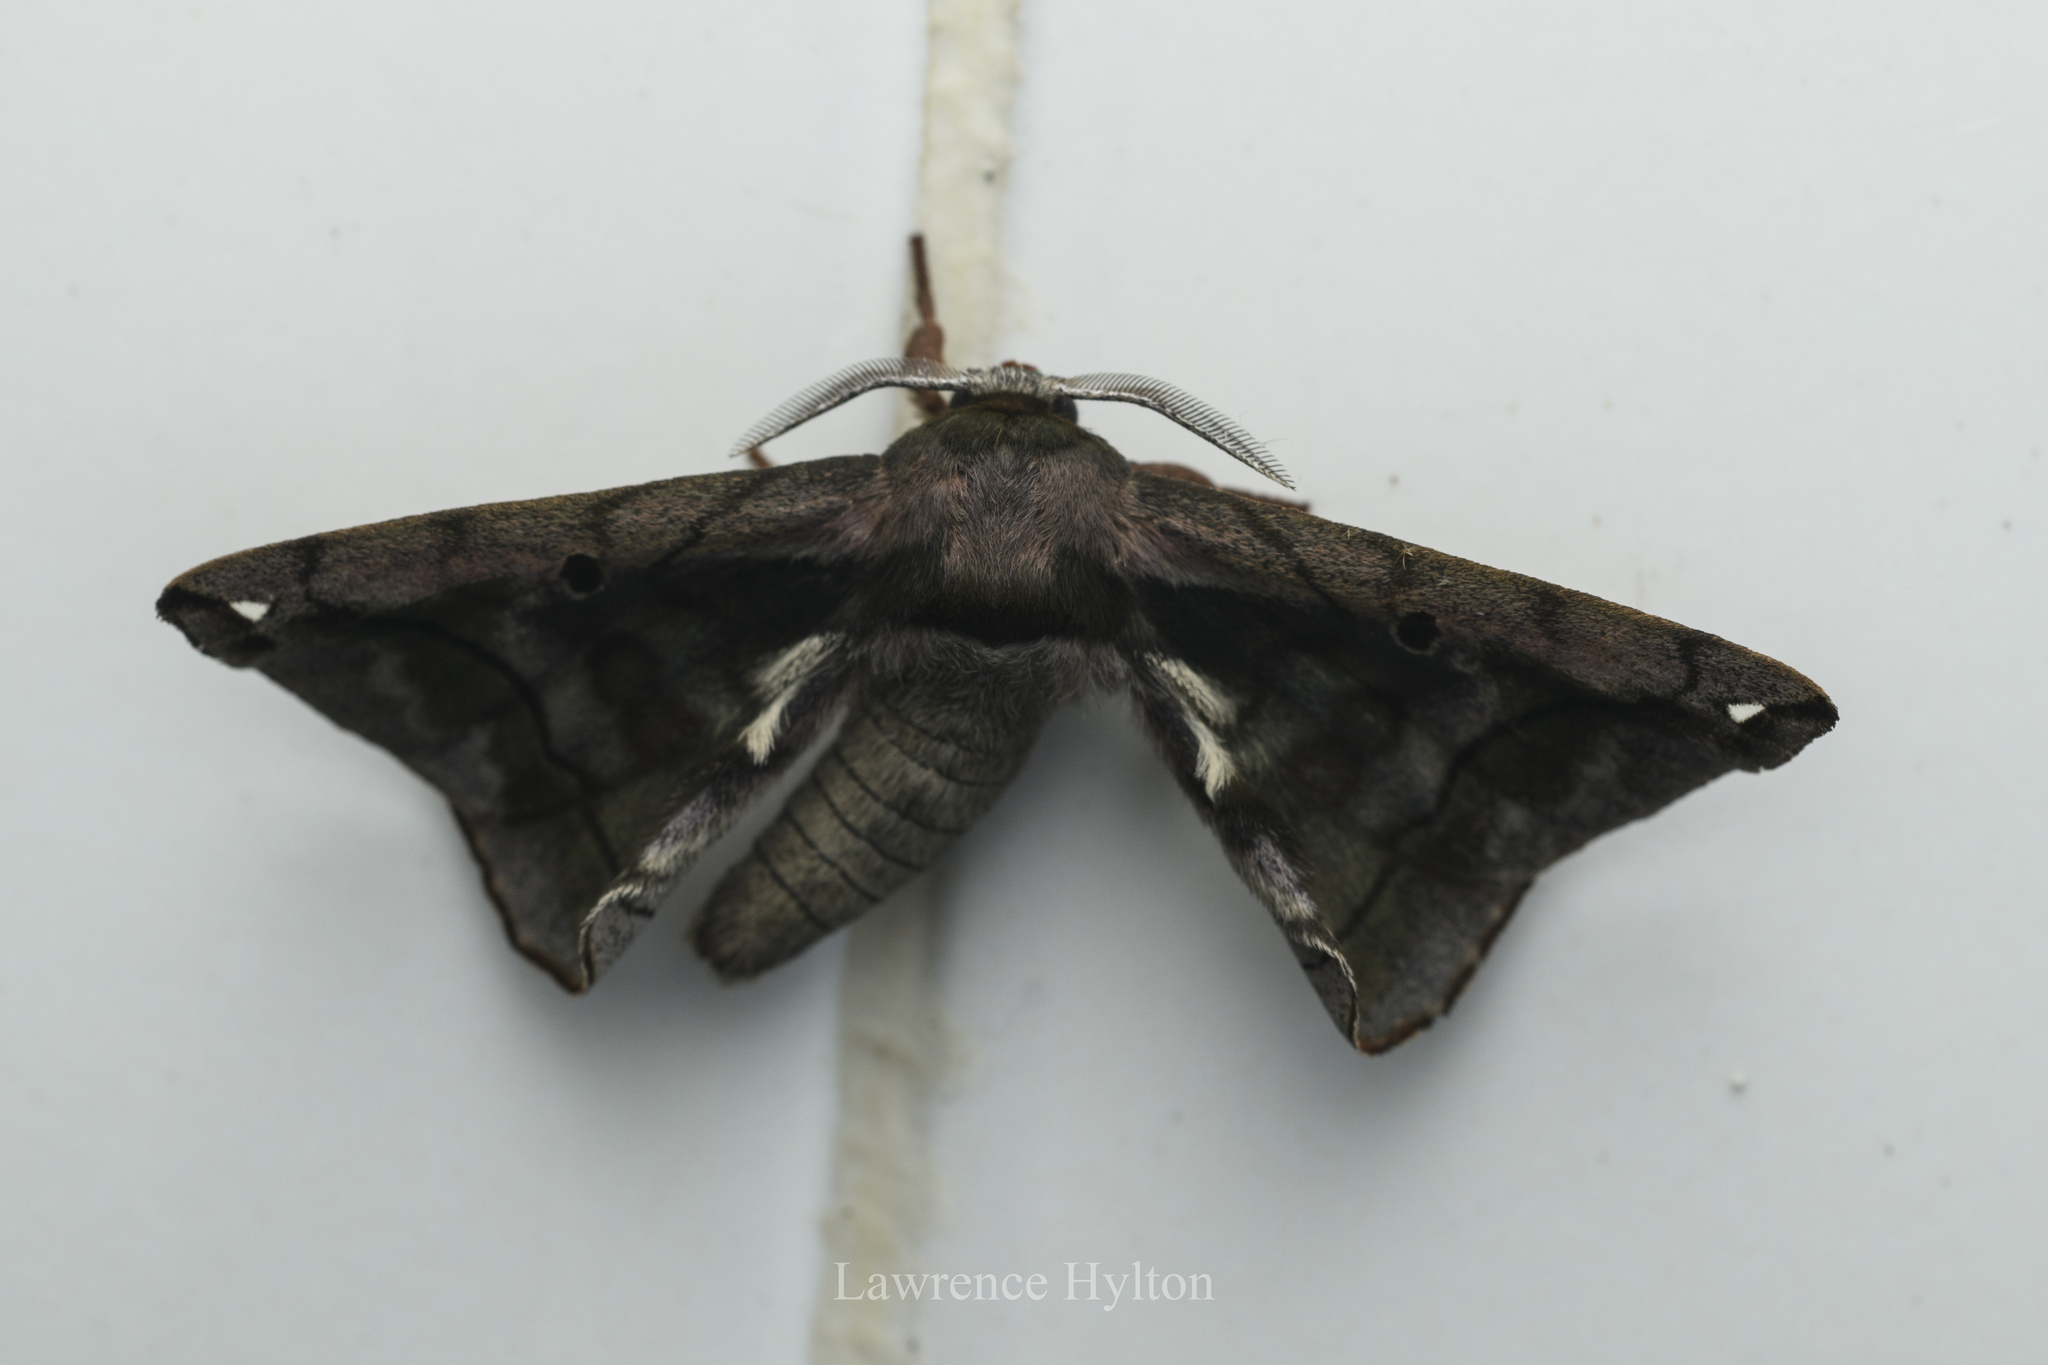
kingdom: Animalia
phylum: Arthropoda
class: Insecta
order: Lepidoptera
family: Endromidae
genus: Prismosticta
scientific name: Prismosticta microprisma
